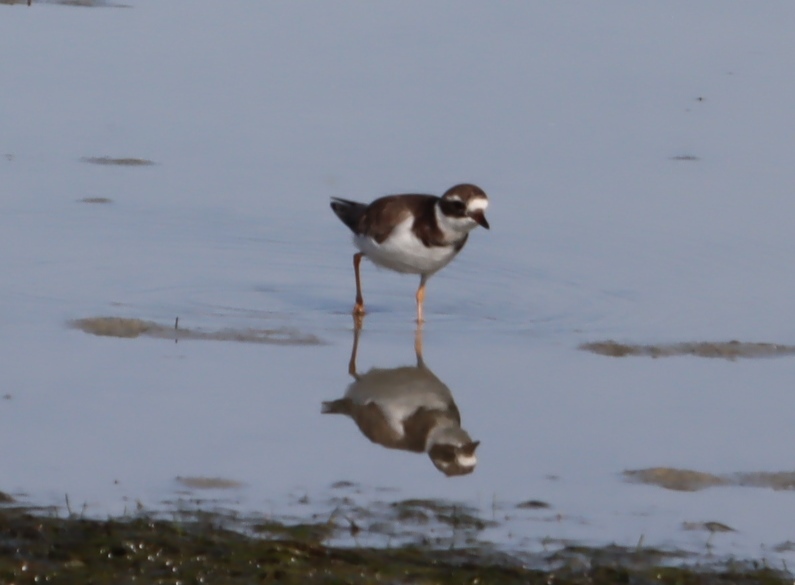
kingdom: Animalia
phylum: Chordata
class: Aves
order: Charadriiformes
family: Charadriidae
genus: Charadrius
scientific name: Charadrius hiaticula
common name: Common ringed plover
